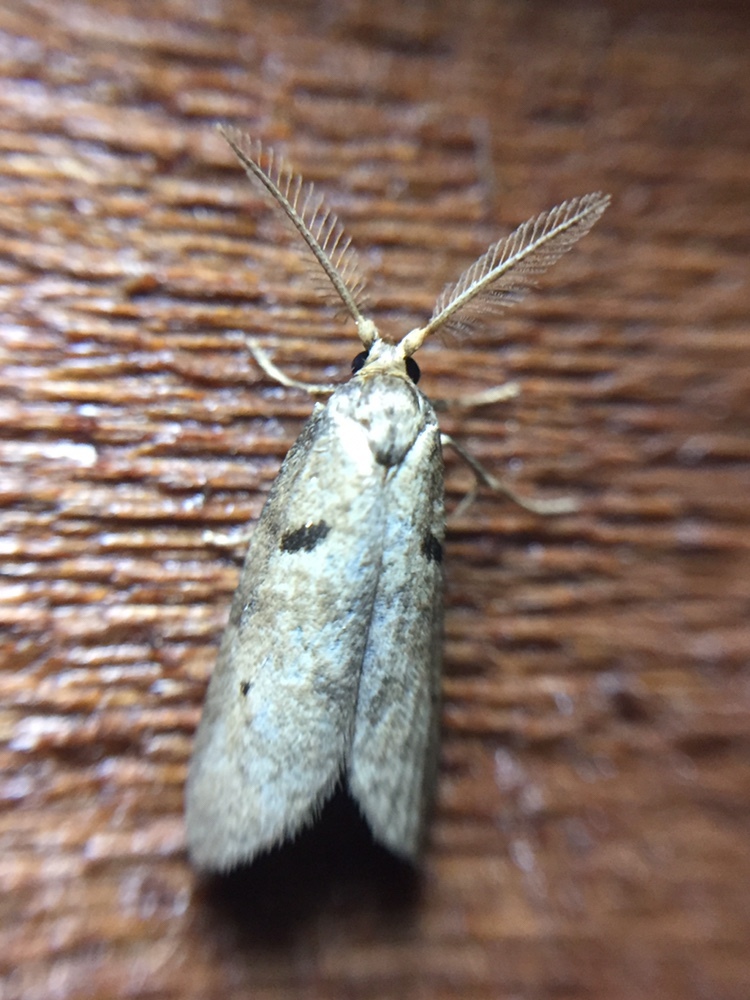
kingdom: Animalia
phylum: Arthropoda
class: Insecta
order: Lepidoptera
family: Galacticidae
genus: Tanaoctena
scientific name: Tanaoctena dubia
